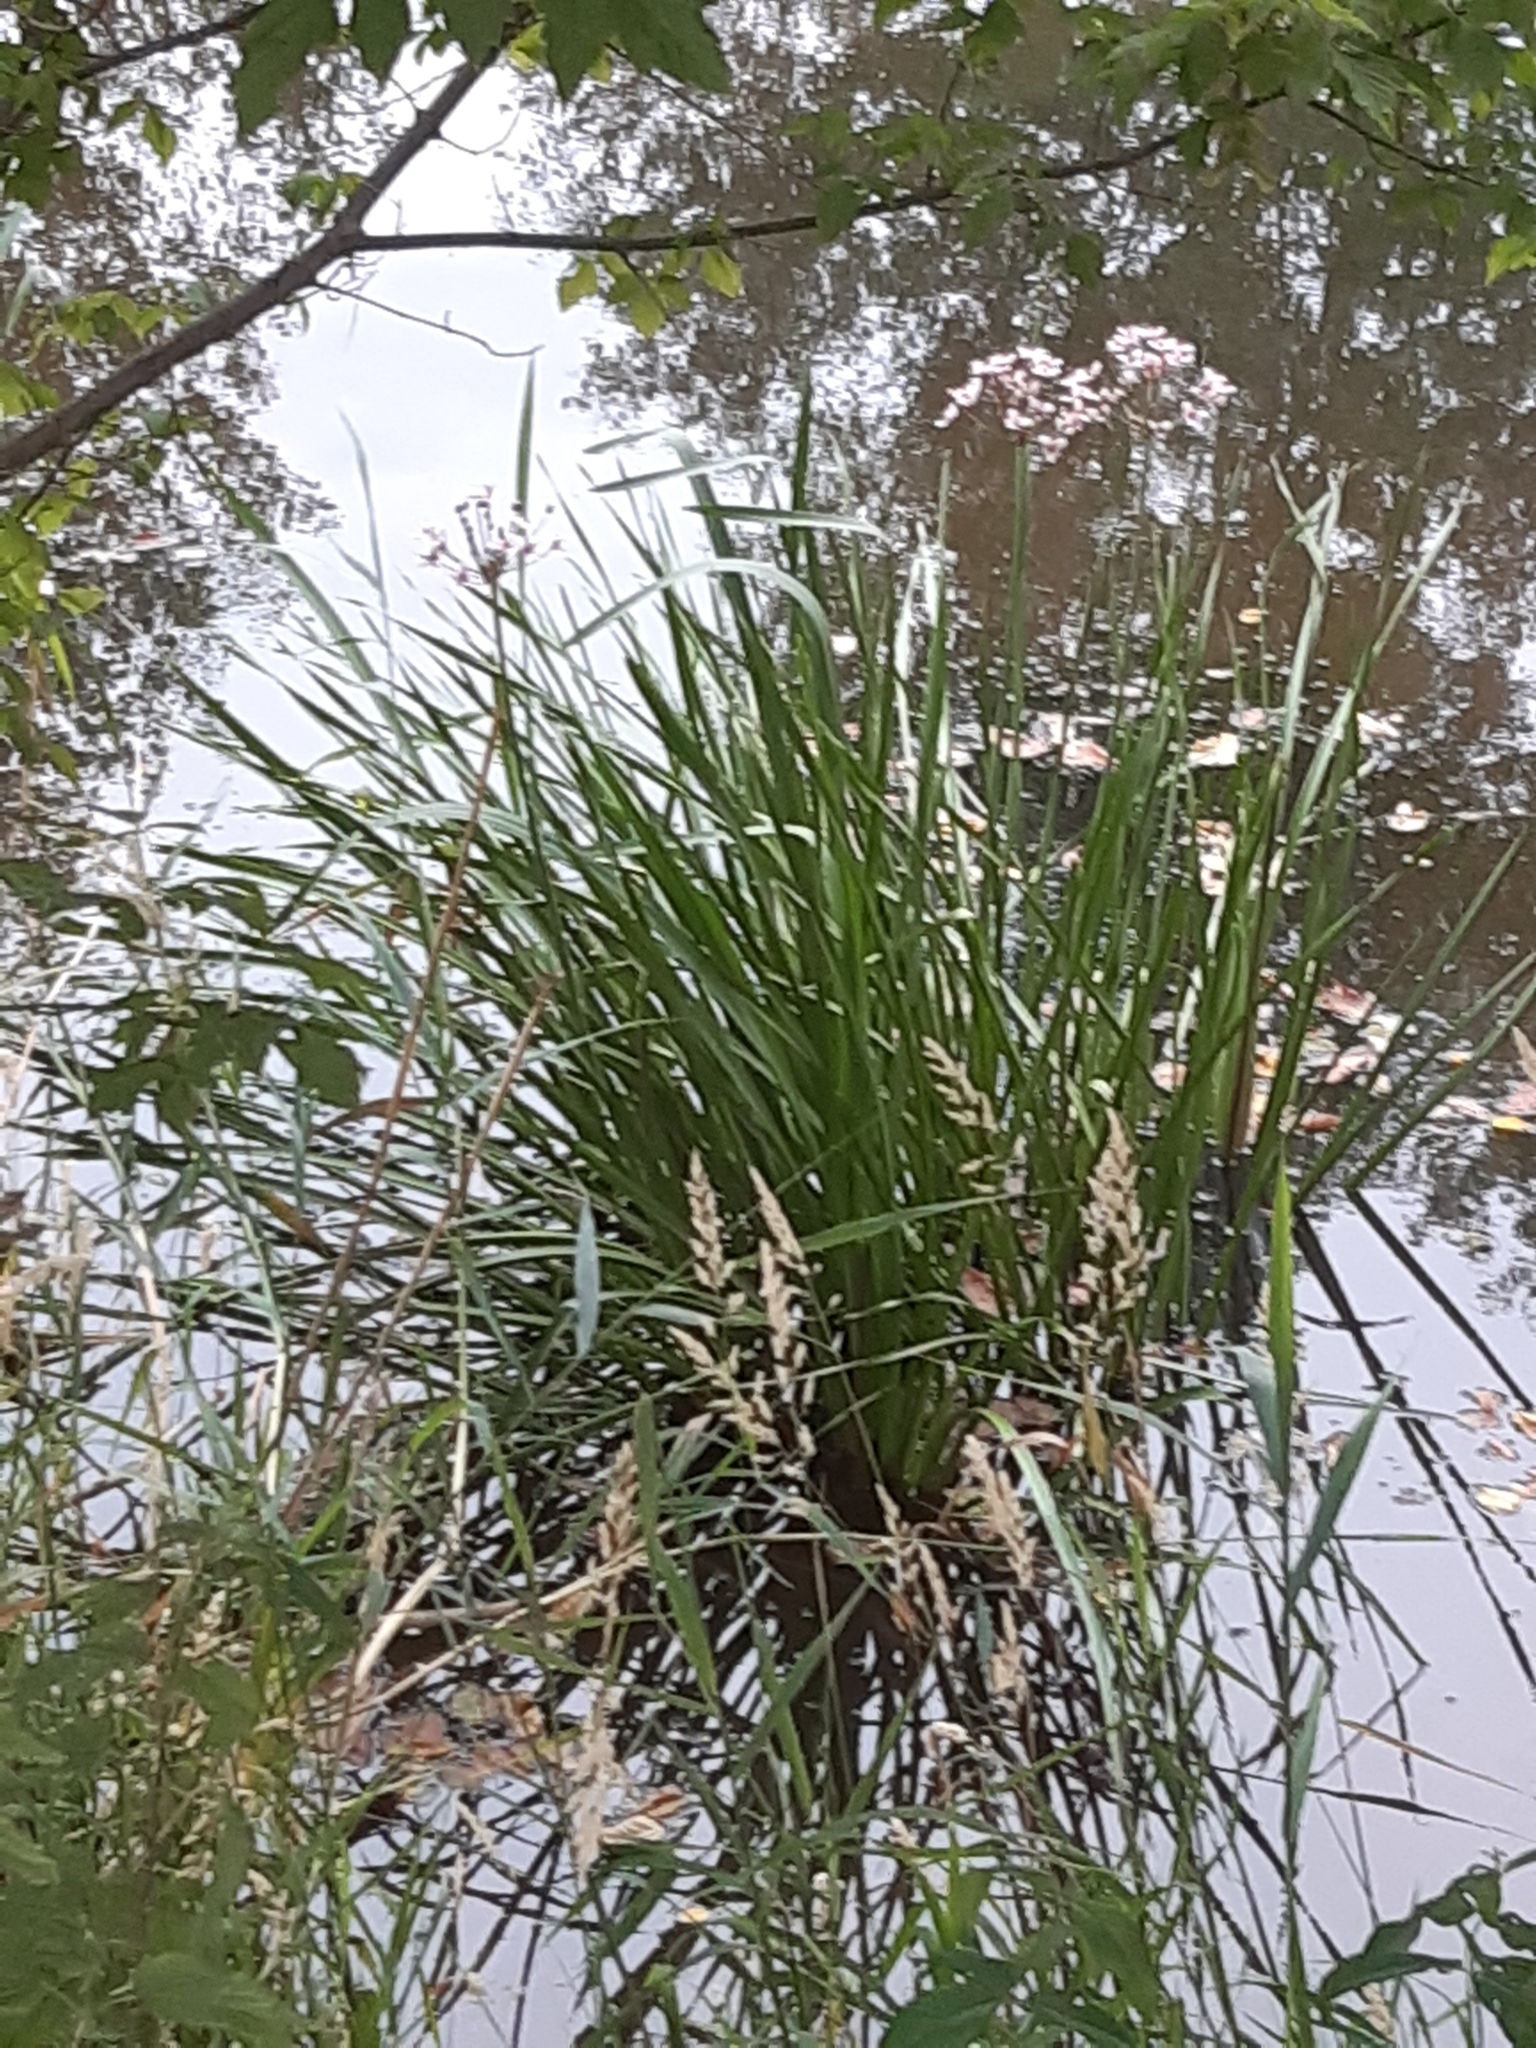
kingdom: Plantae
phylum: Tracheophyta
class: Liliopsida
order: Alismatales
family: Butomaceae
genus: Butomus
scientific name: Butomus umbellatus
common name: Flowering-rush
